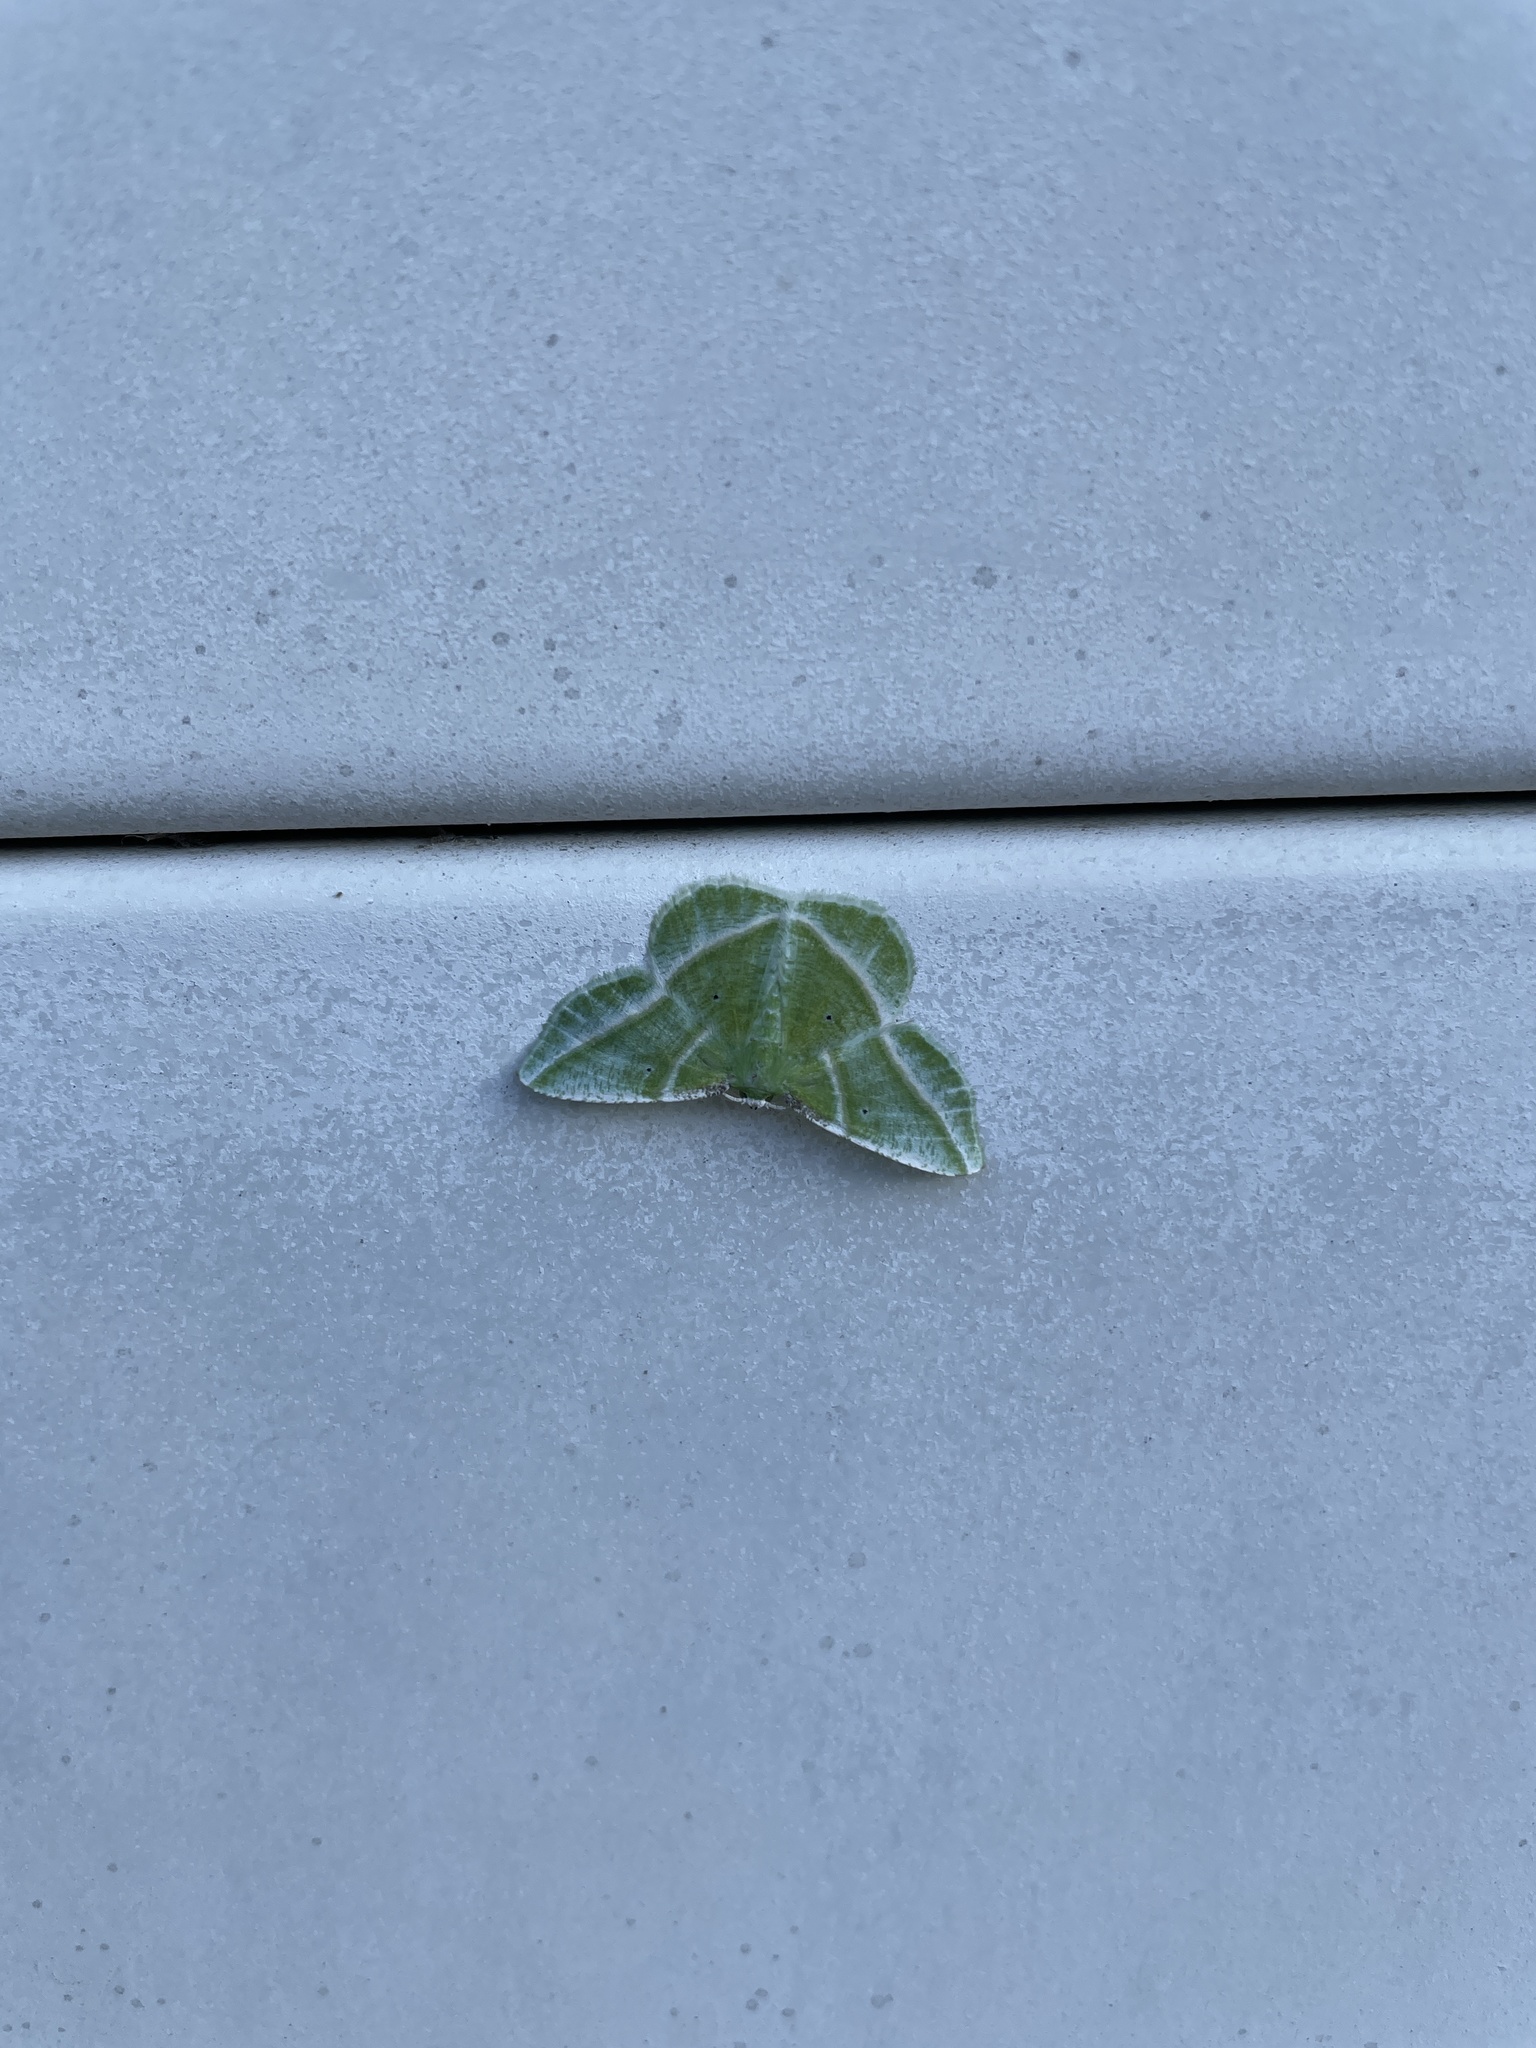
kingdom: Animalia
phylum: Arthropoda
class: Insecta
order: Lepidoptera
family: Geometridae
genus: Dichorda
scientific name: Dichorda iridaria
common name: Showy emerald
